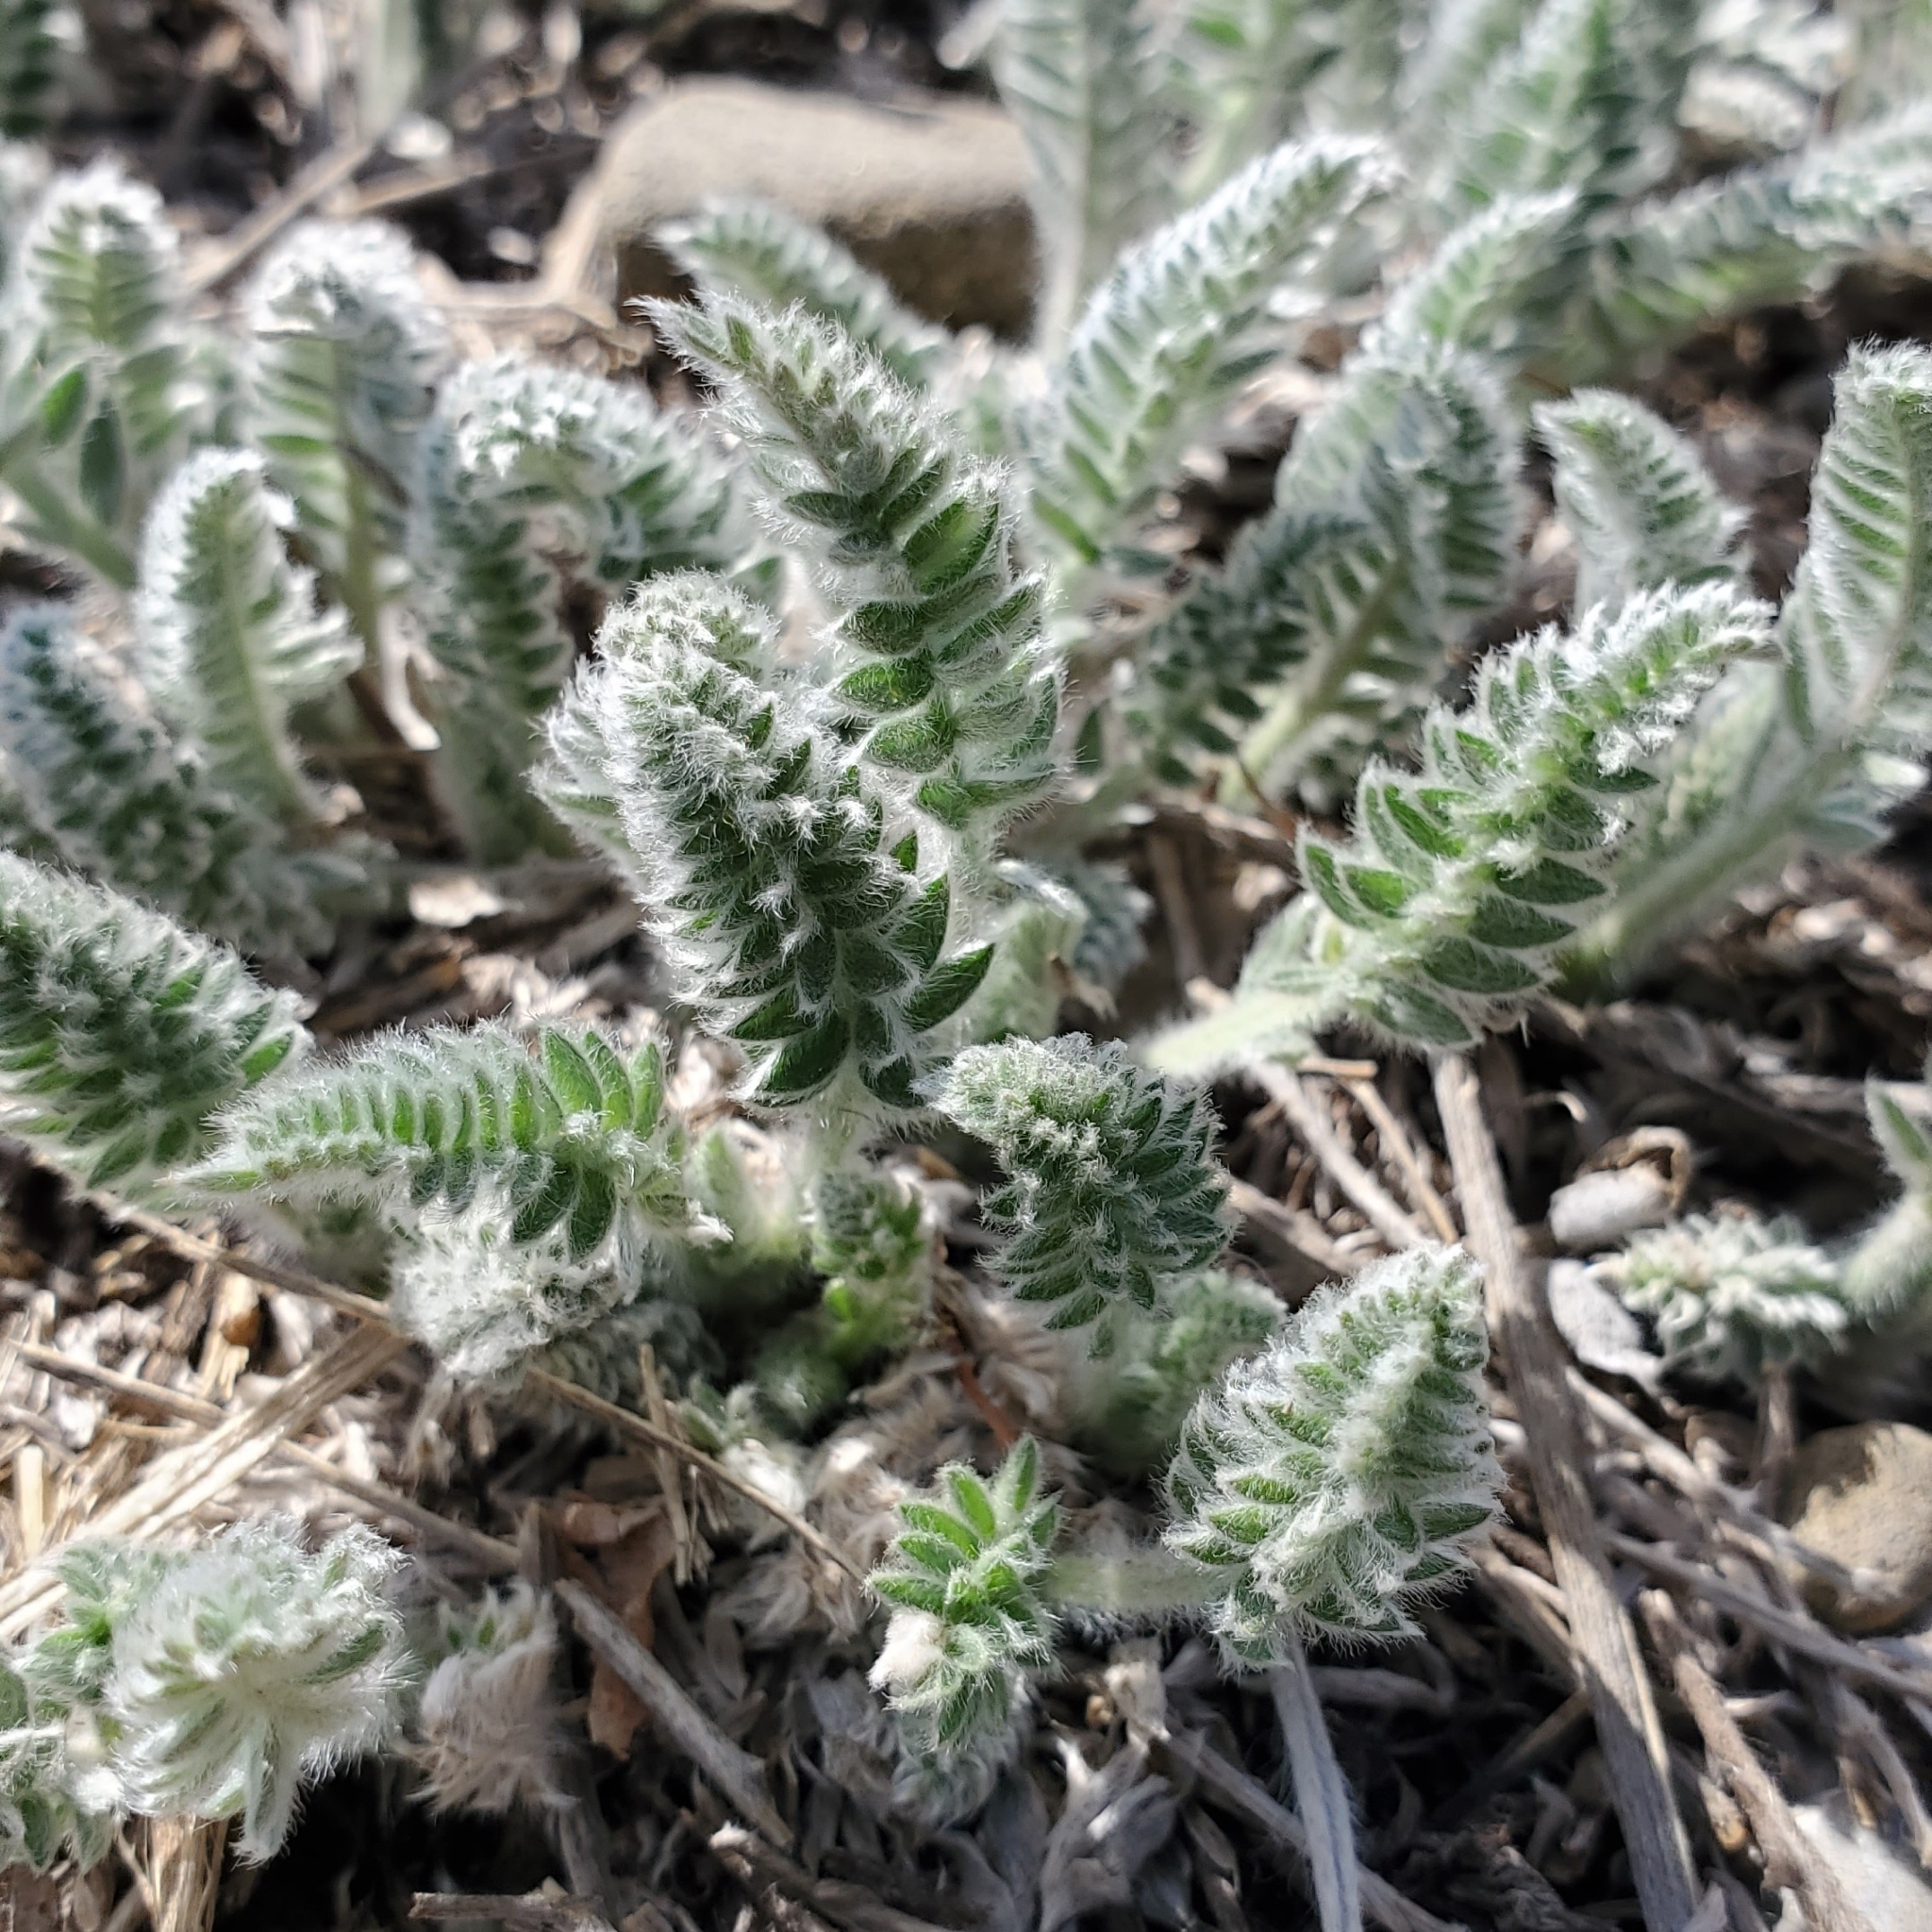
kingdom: Plantae
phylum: Tracheophyta
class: Magnoliopsida
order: Fabales
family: Fabaceae
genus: Oxytropis
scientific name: Oxytropis splendens
